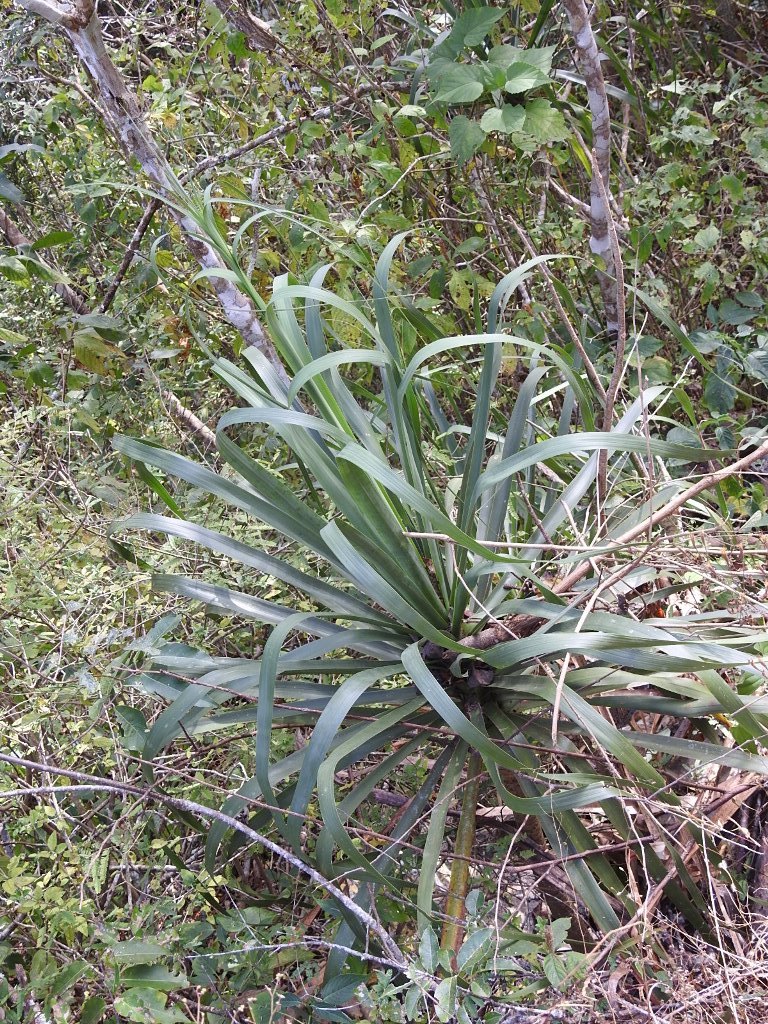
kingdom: Plantae
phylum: Tracheophyta
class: Liliopsida
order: Asparagales
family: Asparagaceae
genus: Beaucarnea
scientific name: Beaucarnea goldmanii
